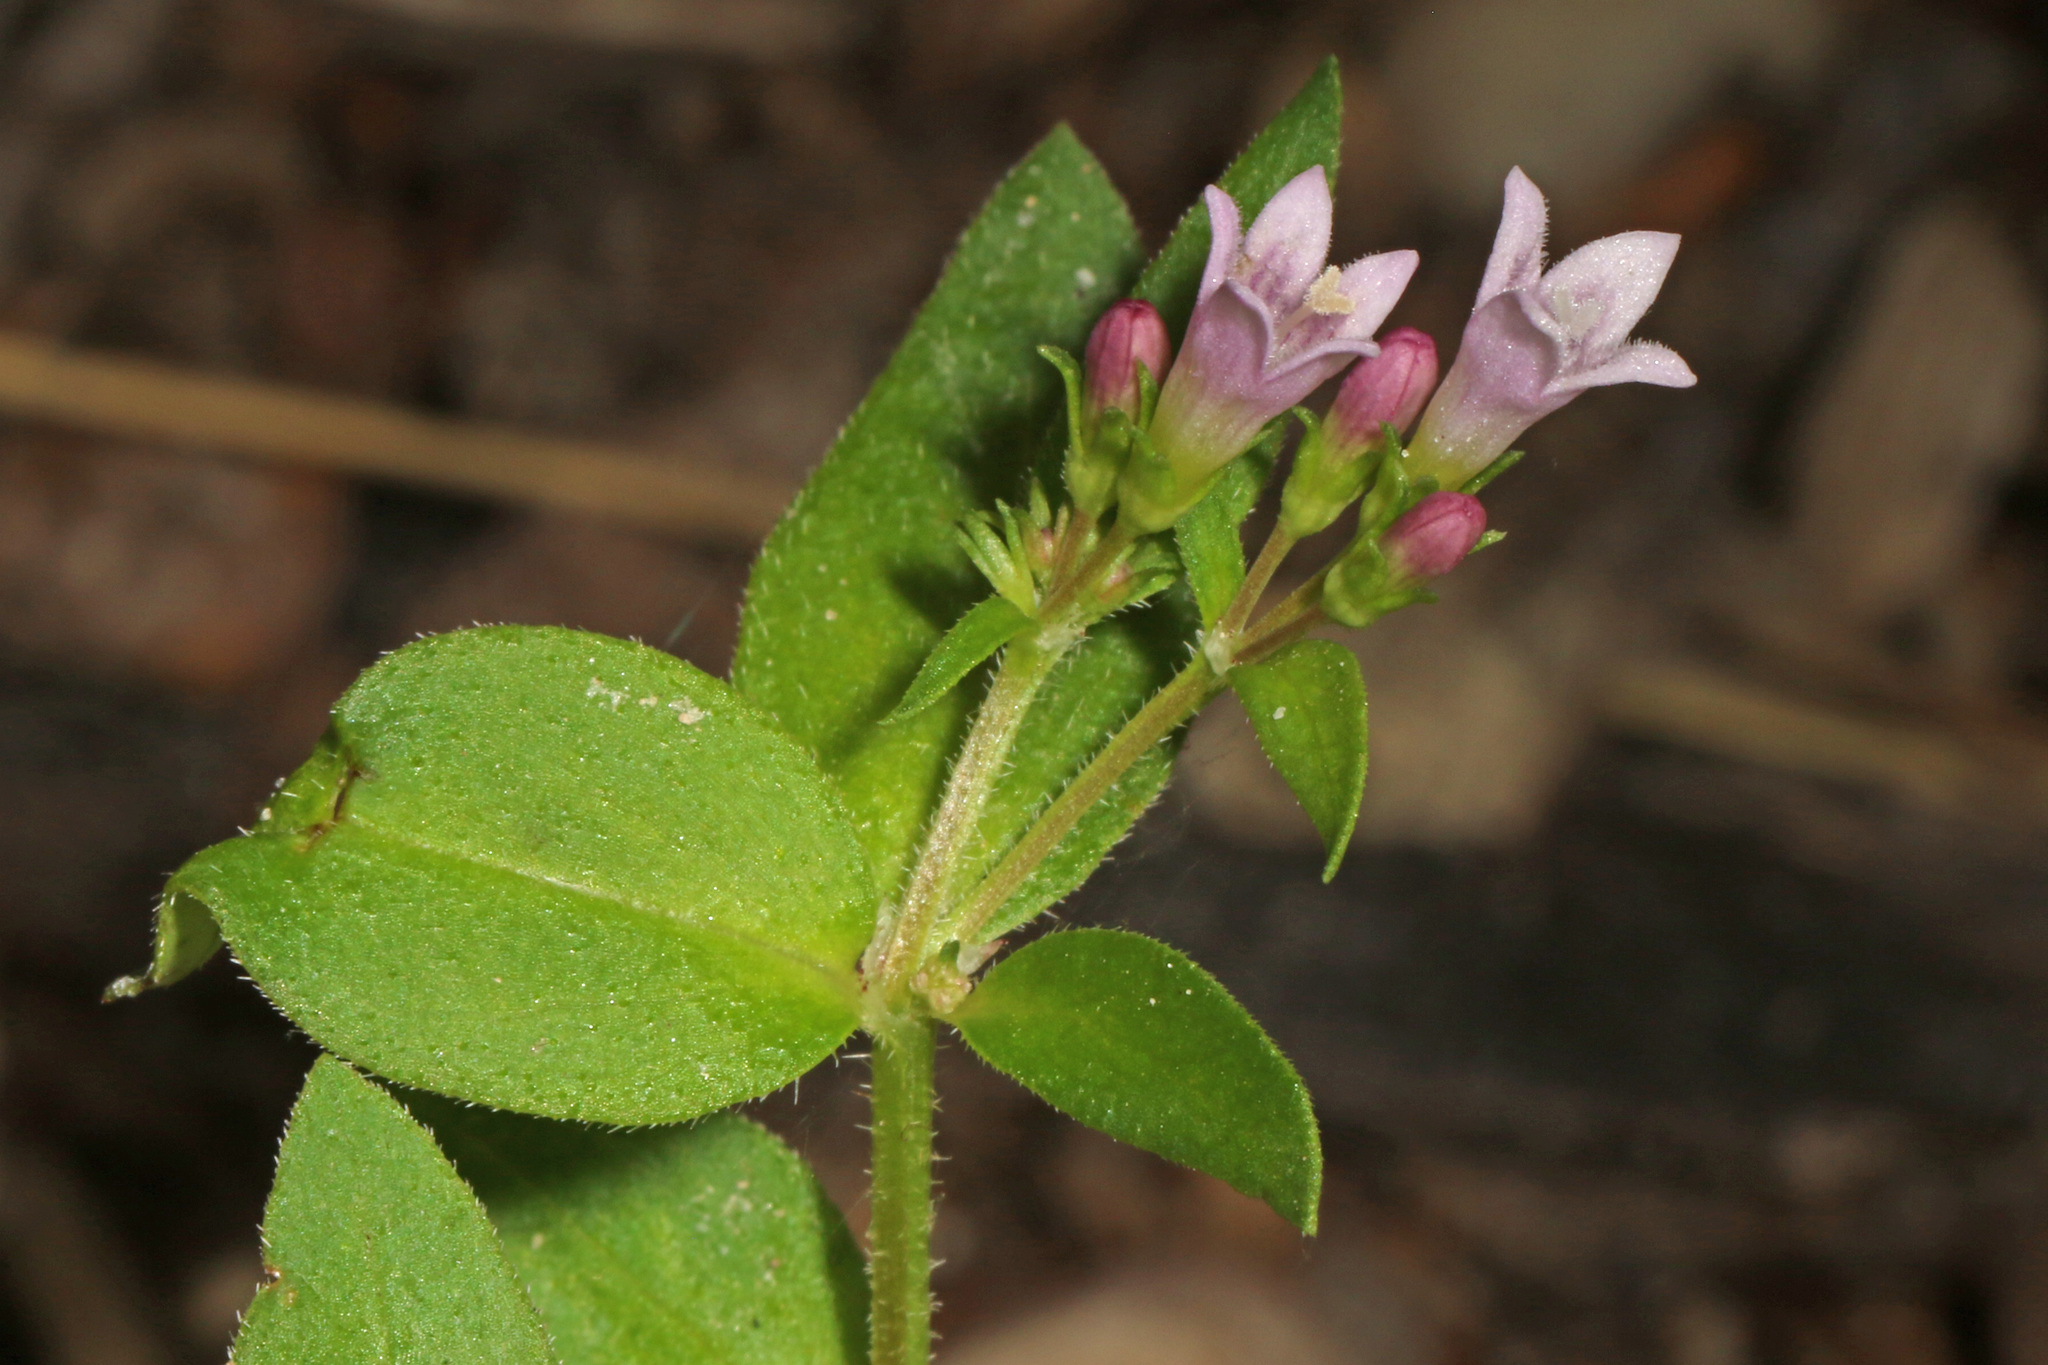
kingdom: Plantae
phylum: Tracheophyta
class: Magnoliopsida
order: Gentianales
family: Rubiaceae
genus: Houstonia
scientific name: Houstonia purpurea
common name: Summer bluet
